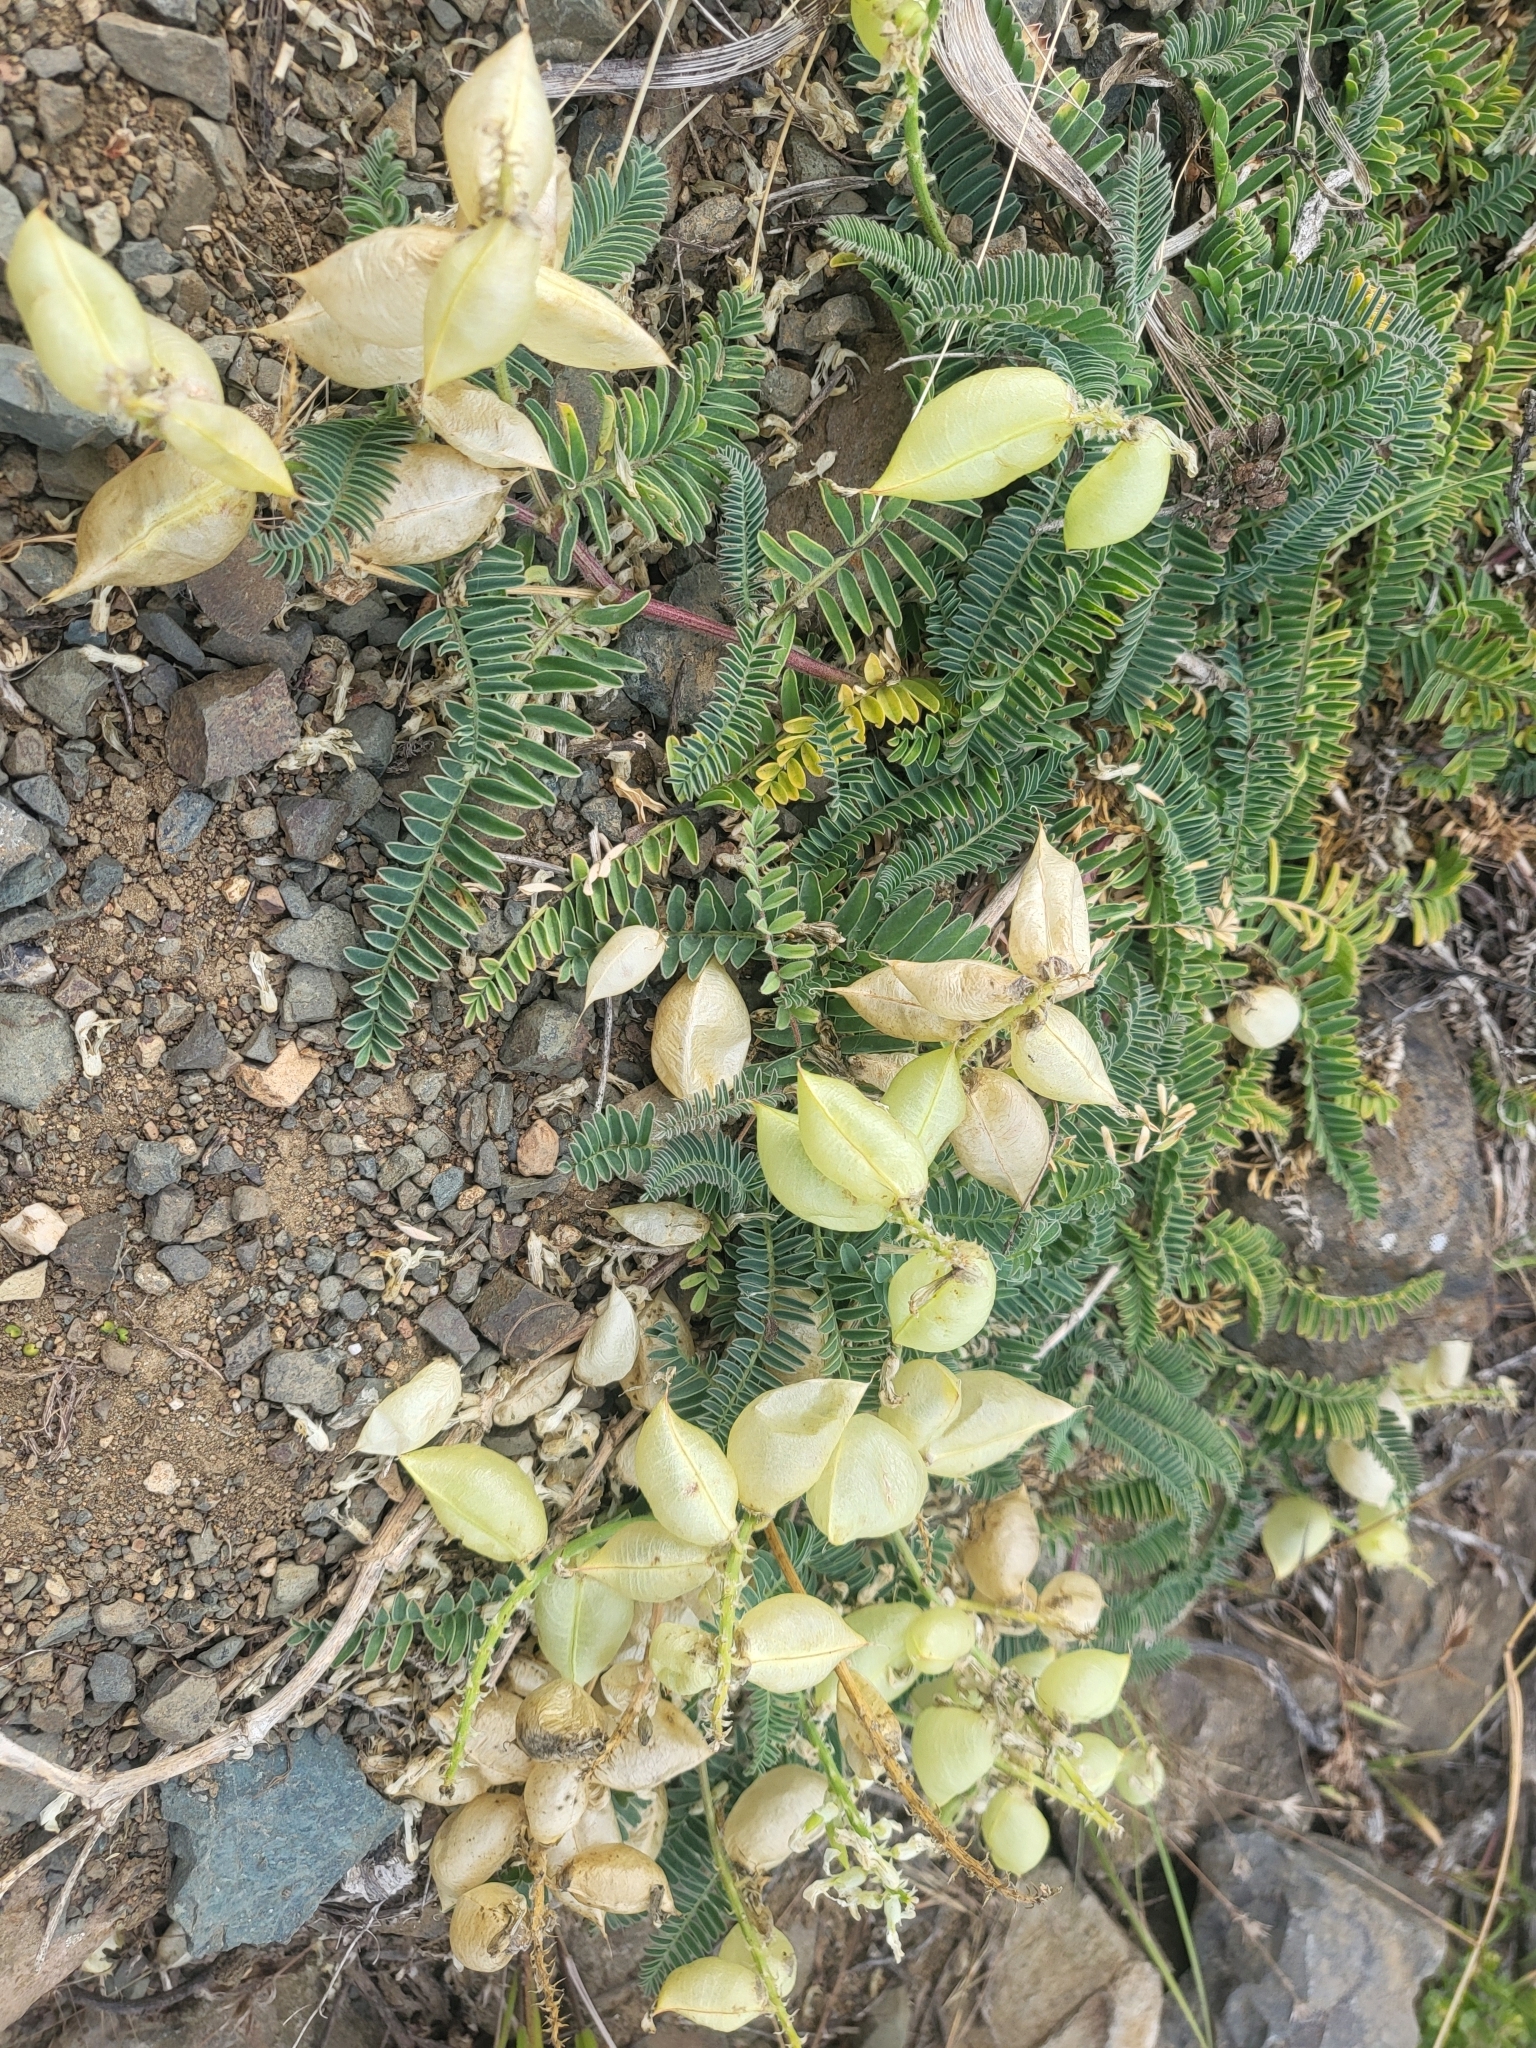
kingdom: Plantae
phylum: Tracheophyta
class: Magnoliopsida
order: Fabales
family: Fabaceae
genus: Astragalus
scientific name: Astragalus nuttallii
